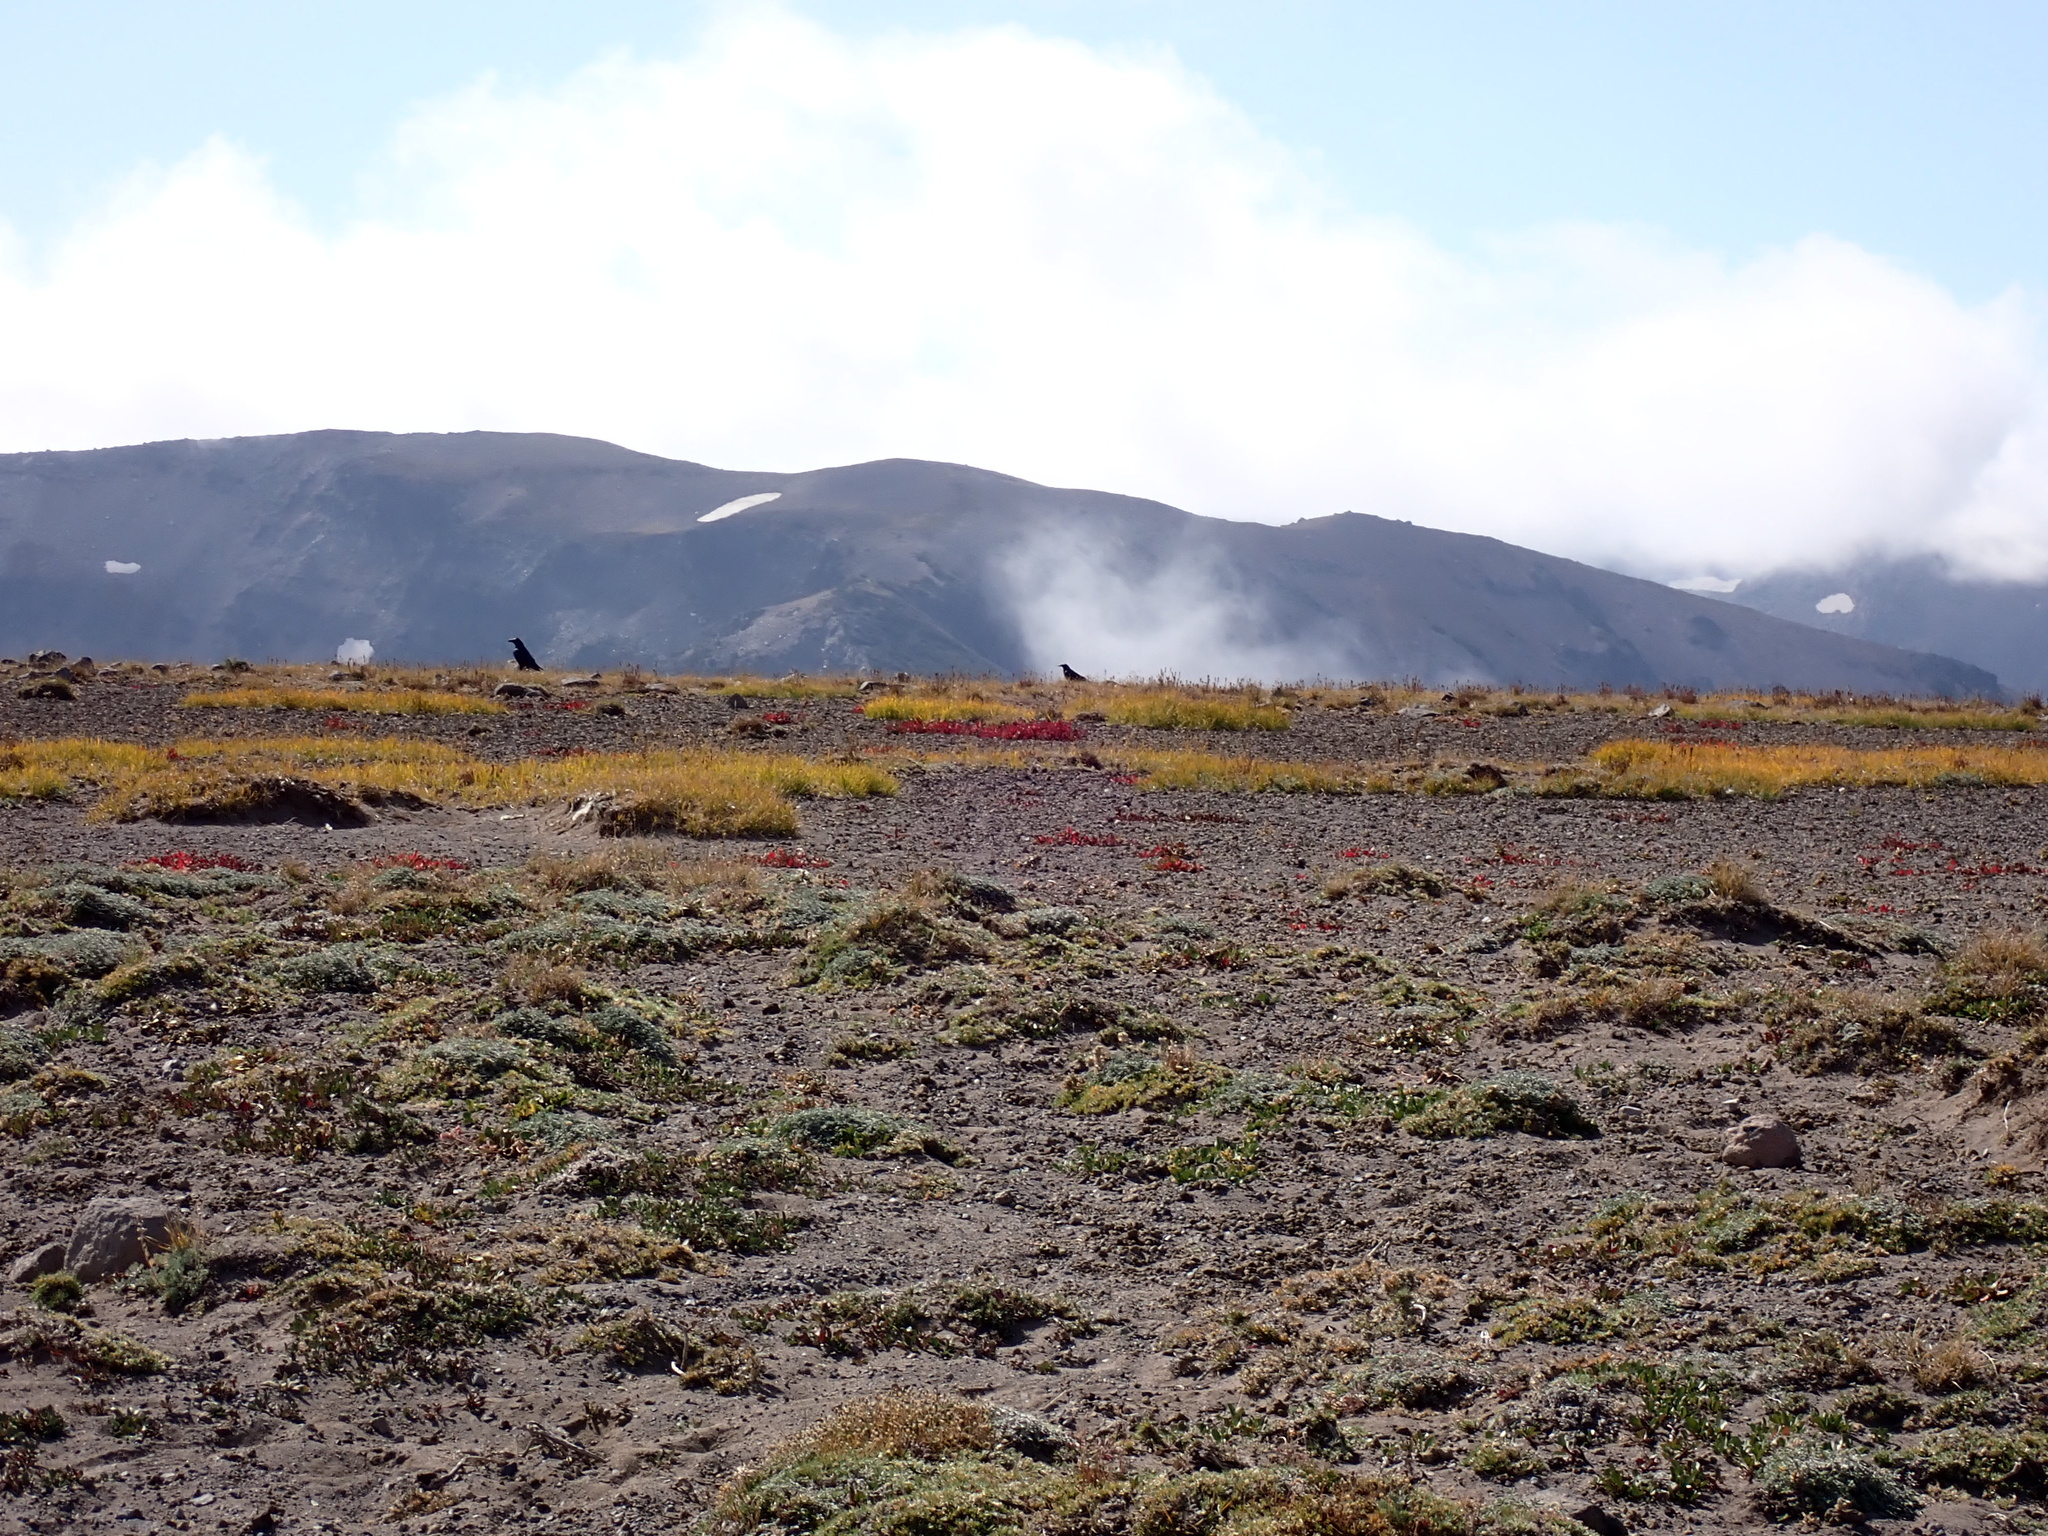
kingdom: Animalia
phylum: Chordata
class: Aves
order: Passeriformes
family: Corvidae
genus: Corvus
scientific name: Corvus corax
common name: Common raven
